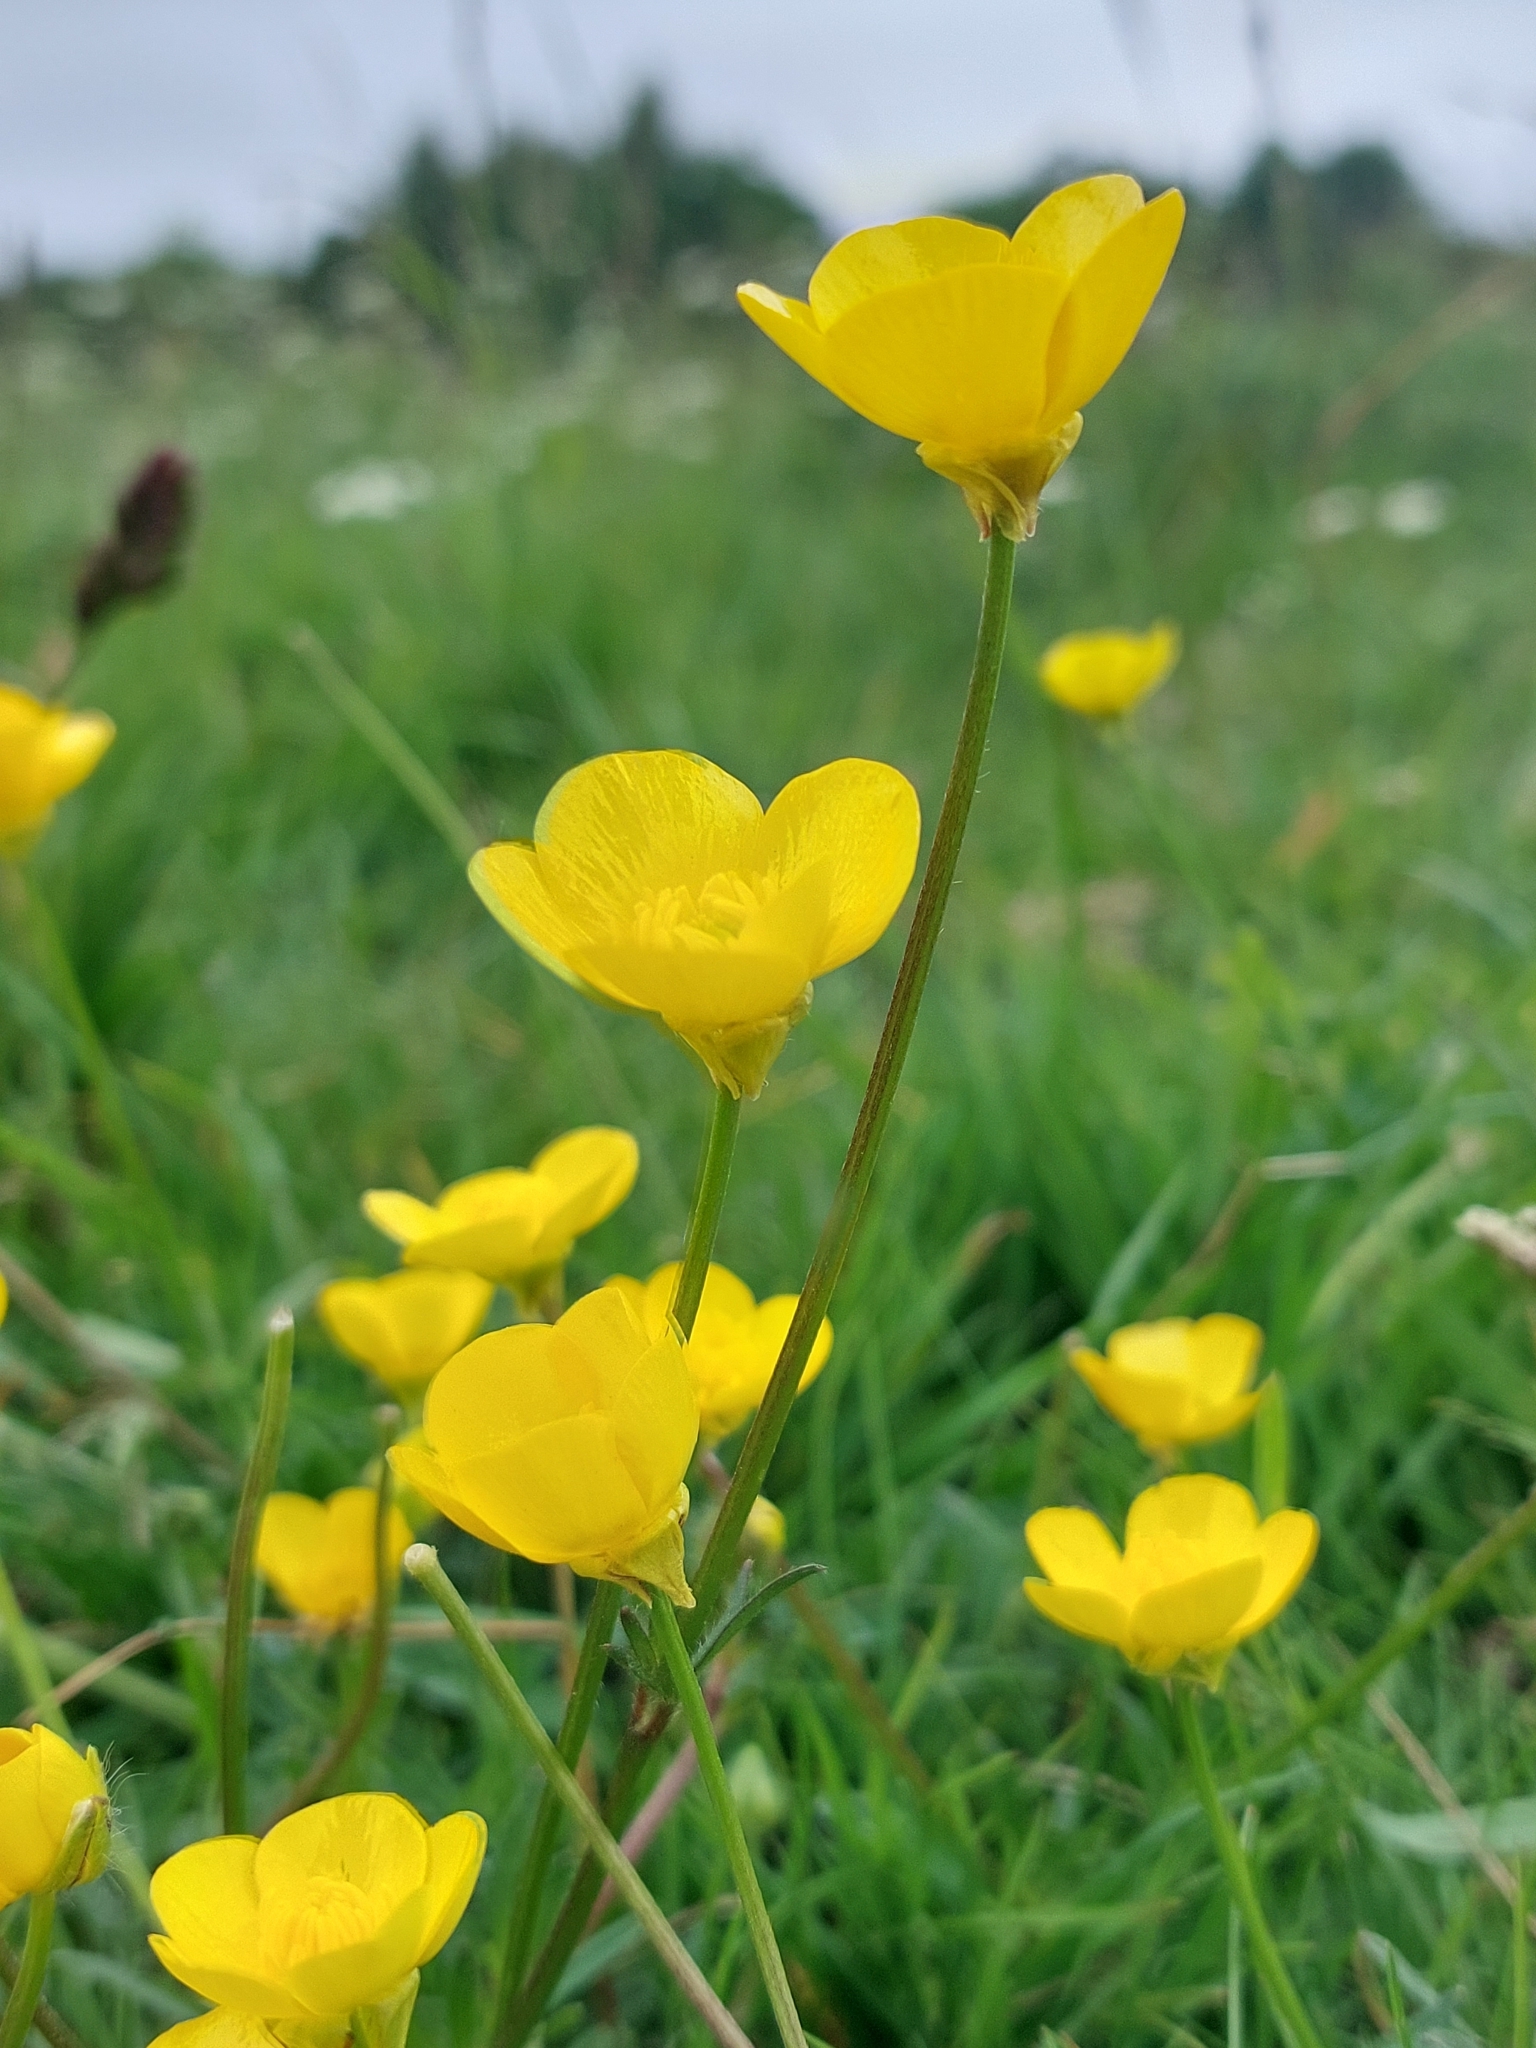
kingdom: Plantae
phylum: Tracheophyta
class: Magnoliopsida
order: Ranunculales
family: Ranunculaceae
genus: Ranunculus
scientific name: Ranunculus bulbosus
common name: Bulbous buttercup
